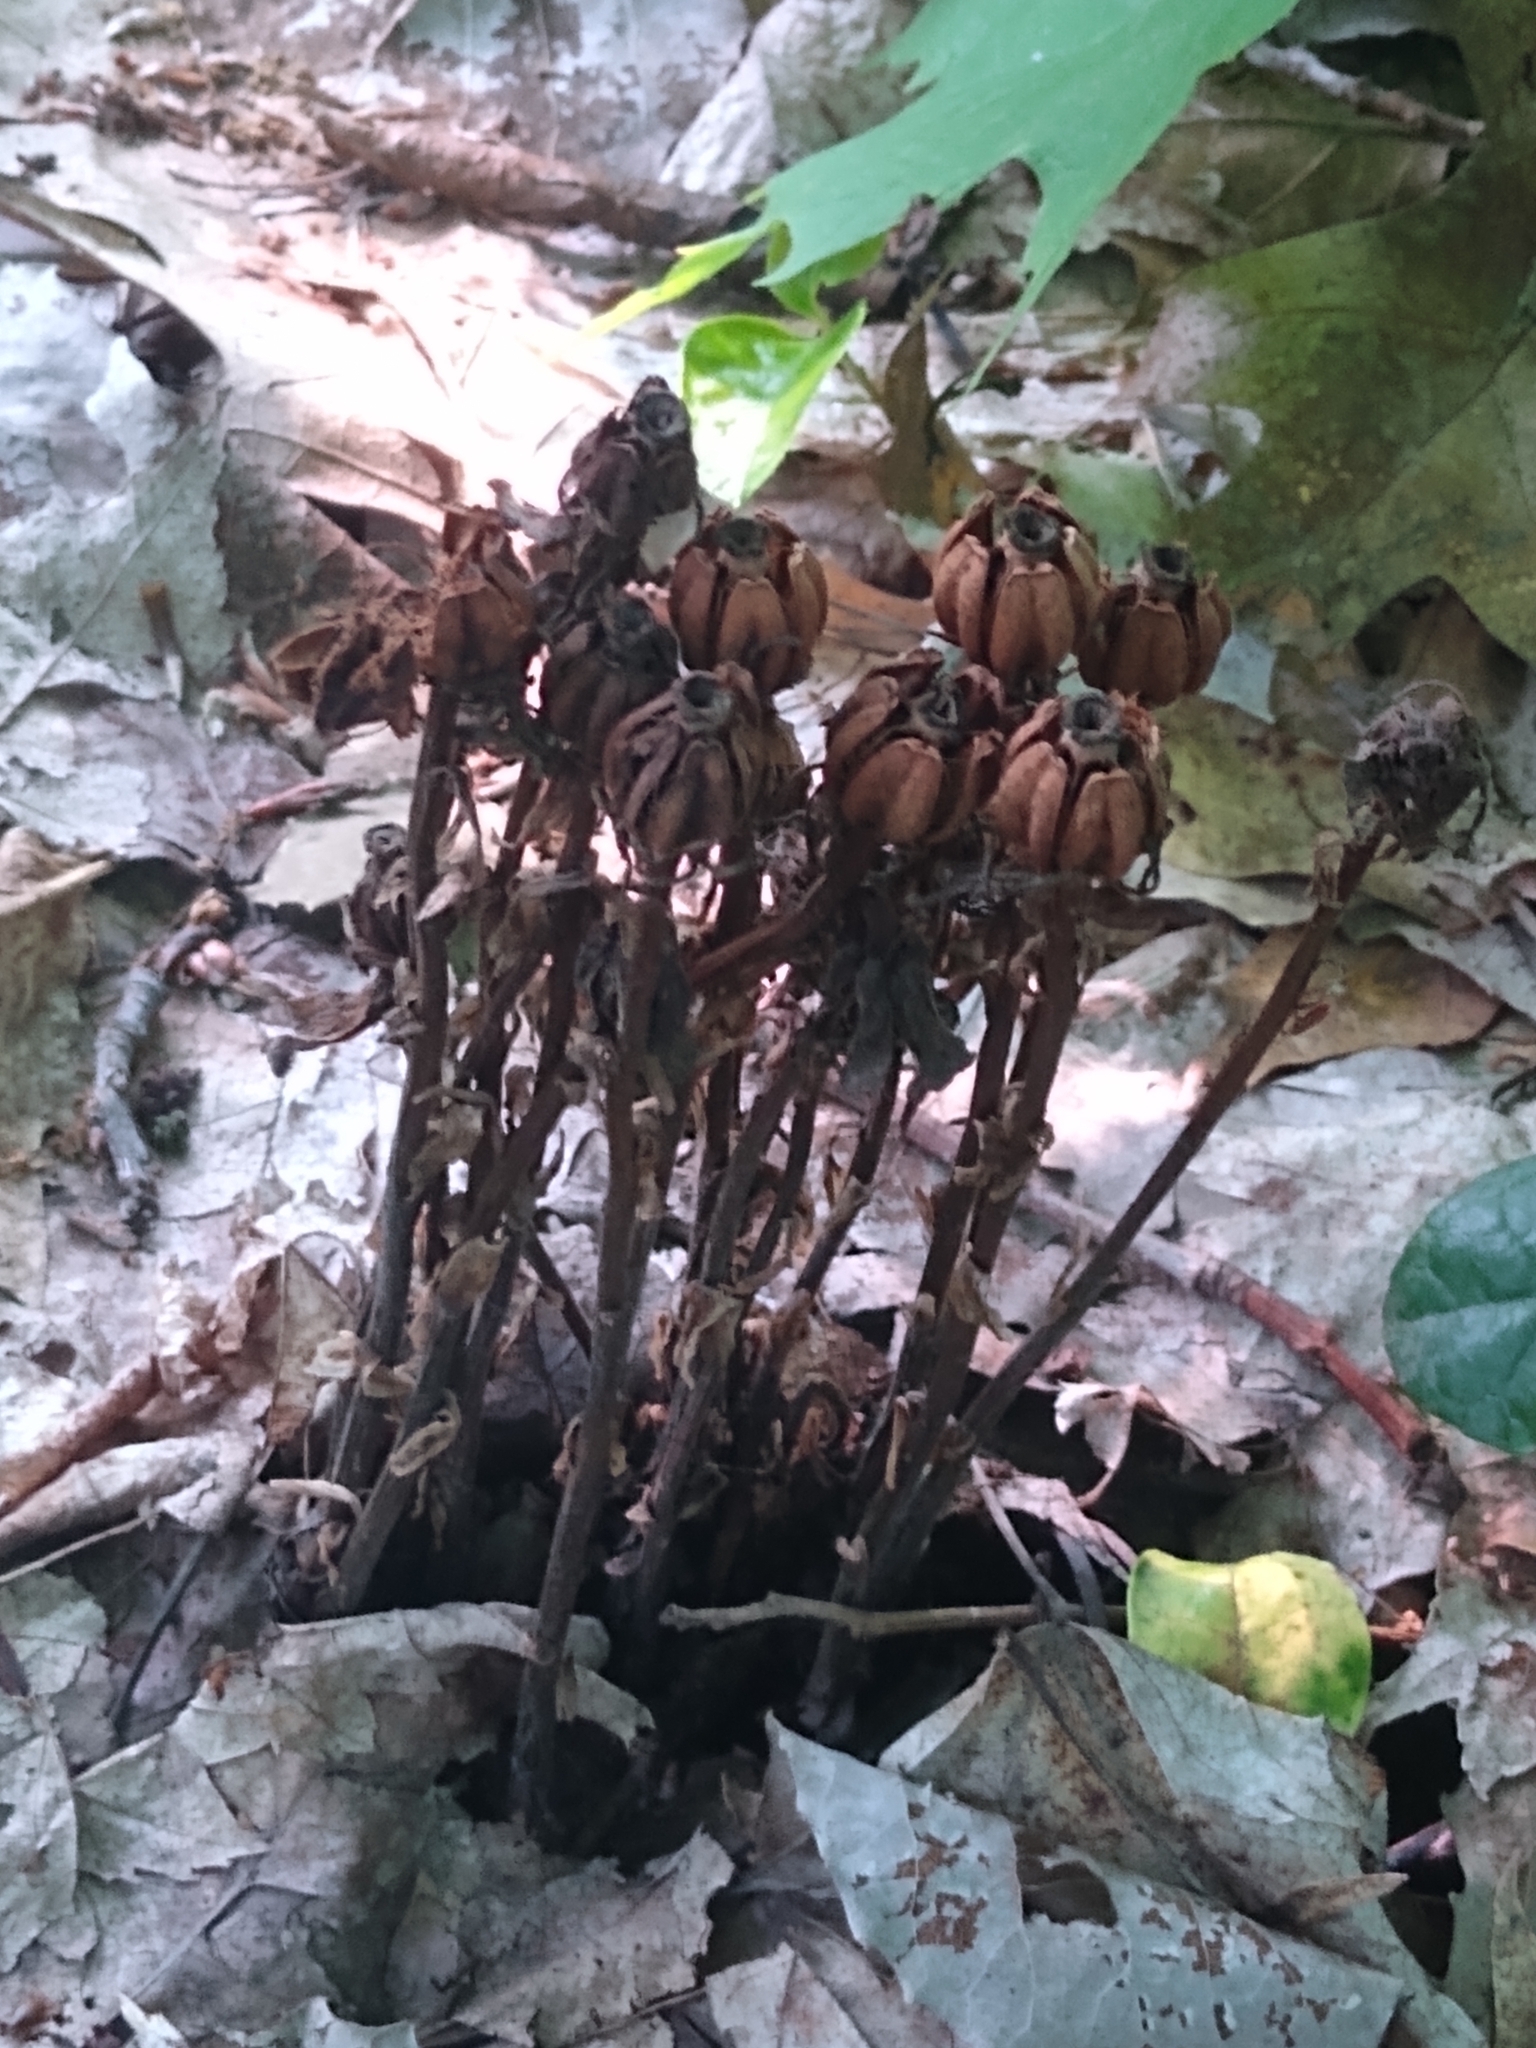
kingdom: Plantae
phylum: Tracheophyta
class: Magnoliopsida
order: Ericales
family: Ericaceae
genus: Monotropa
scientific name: Monotropa uniflora
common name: Convulsion root
